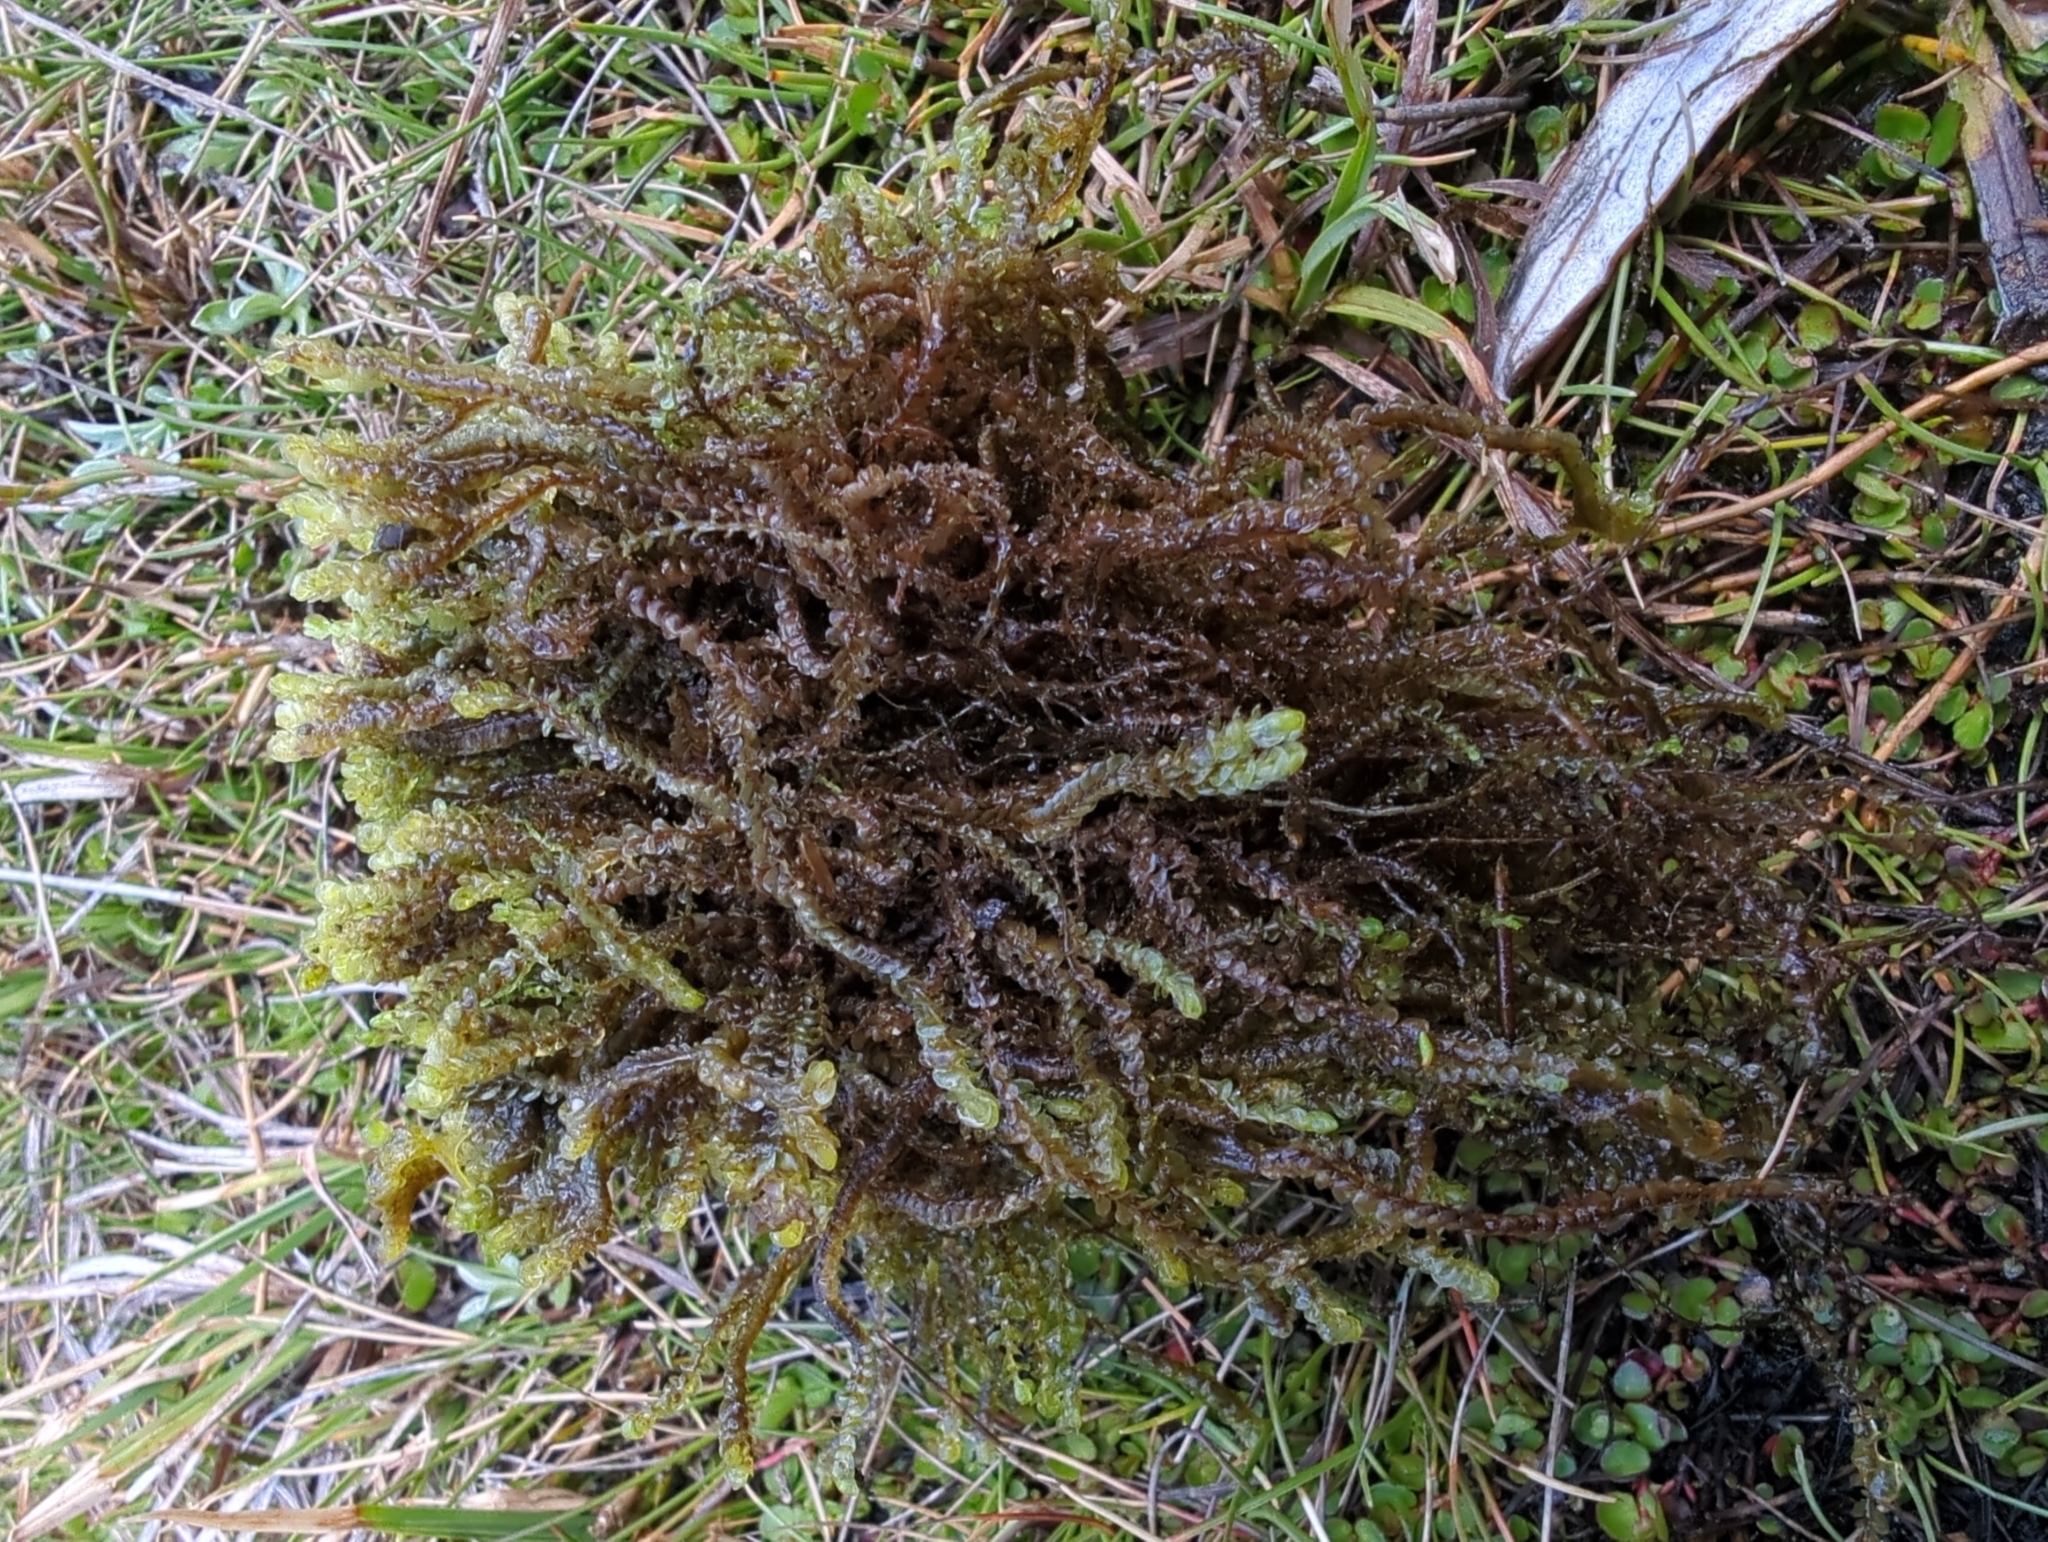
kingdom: Plantae
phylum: Marchantiophyta
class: Jungermanniopsida
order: Jungermanniales
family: Lophocoleaceae
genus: Pachyglossa
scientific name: Pachyglossa austrigena
